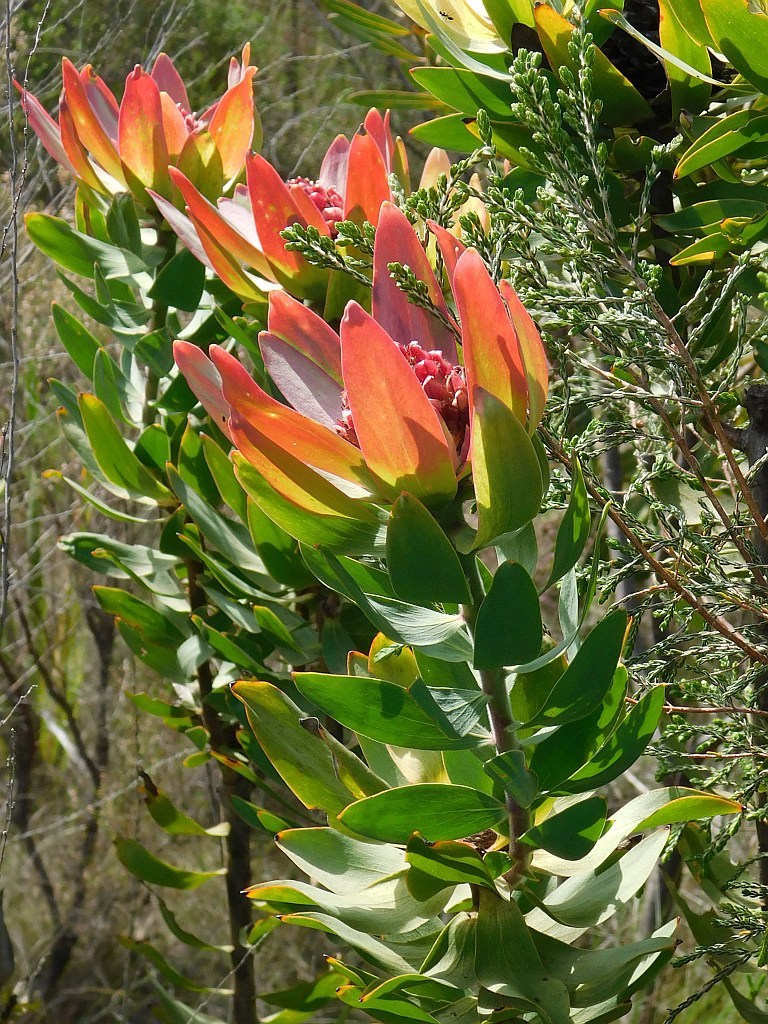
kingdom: Plantae
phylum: Tracheophyta
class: Magnoliopsida
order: Proteales
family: Proteaceae
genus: Leucadendron
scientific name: Leucadendron burchellii
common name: Riviersonderend conebush
